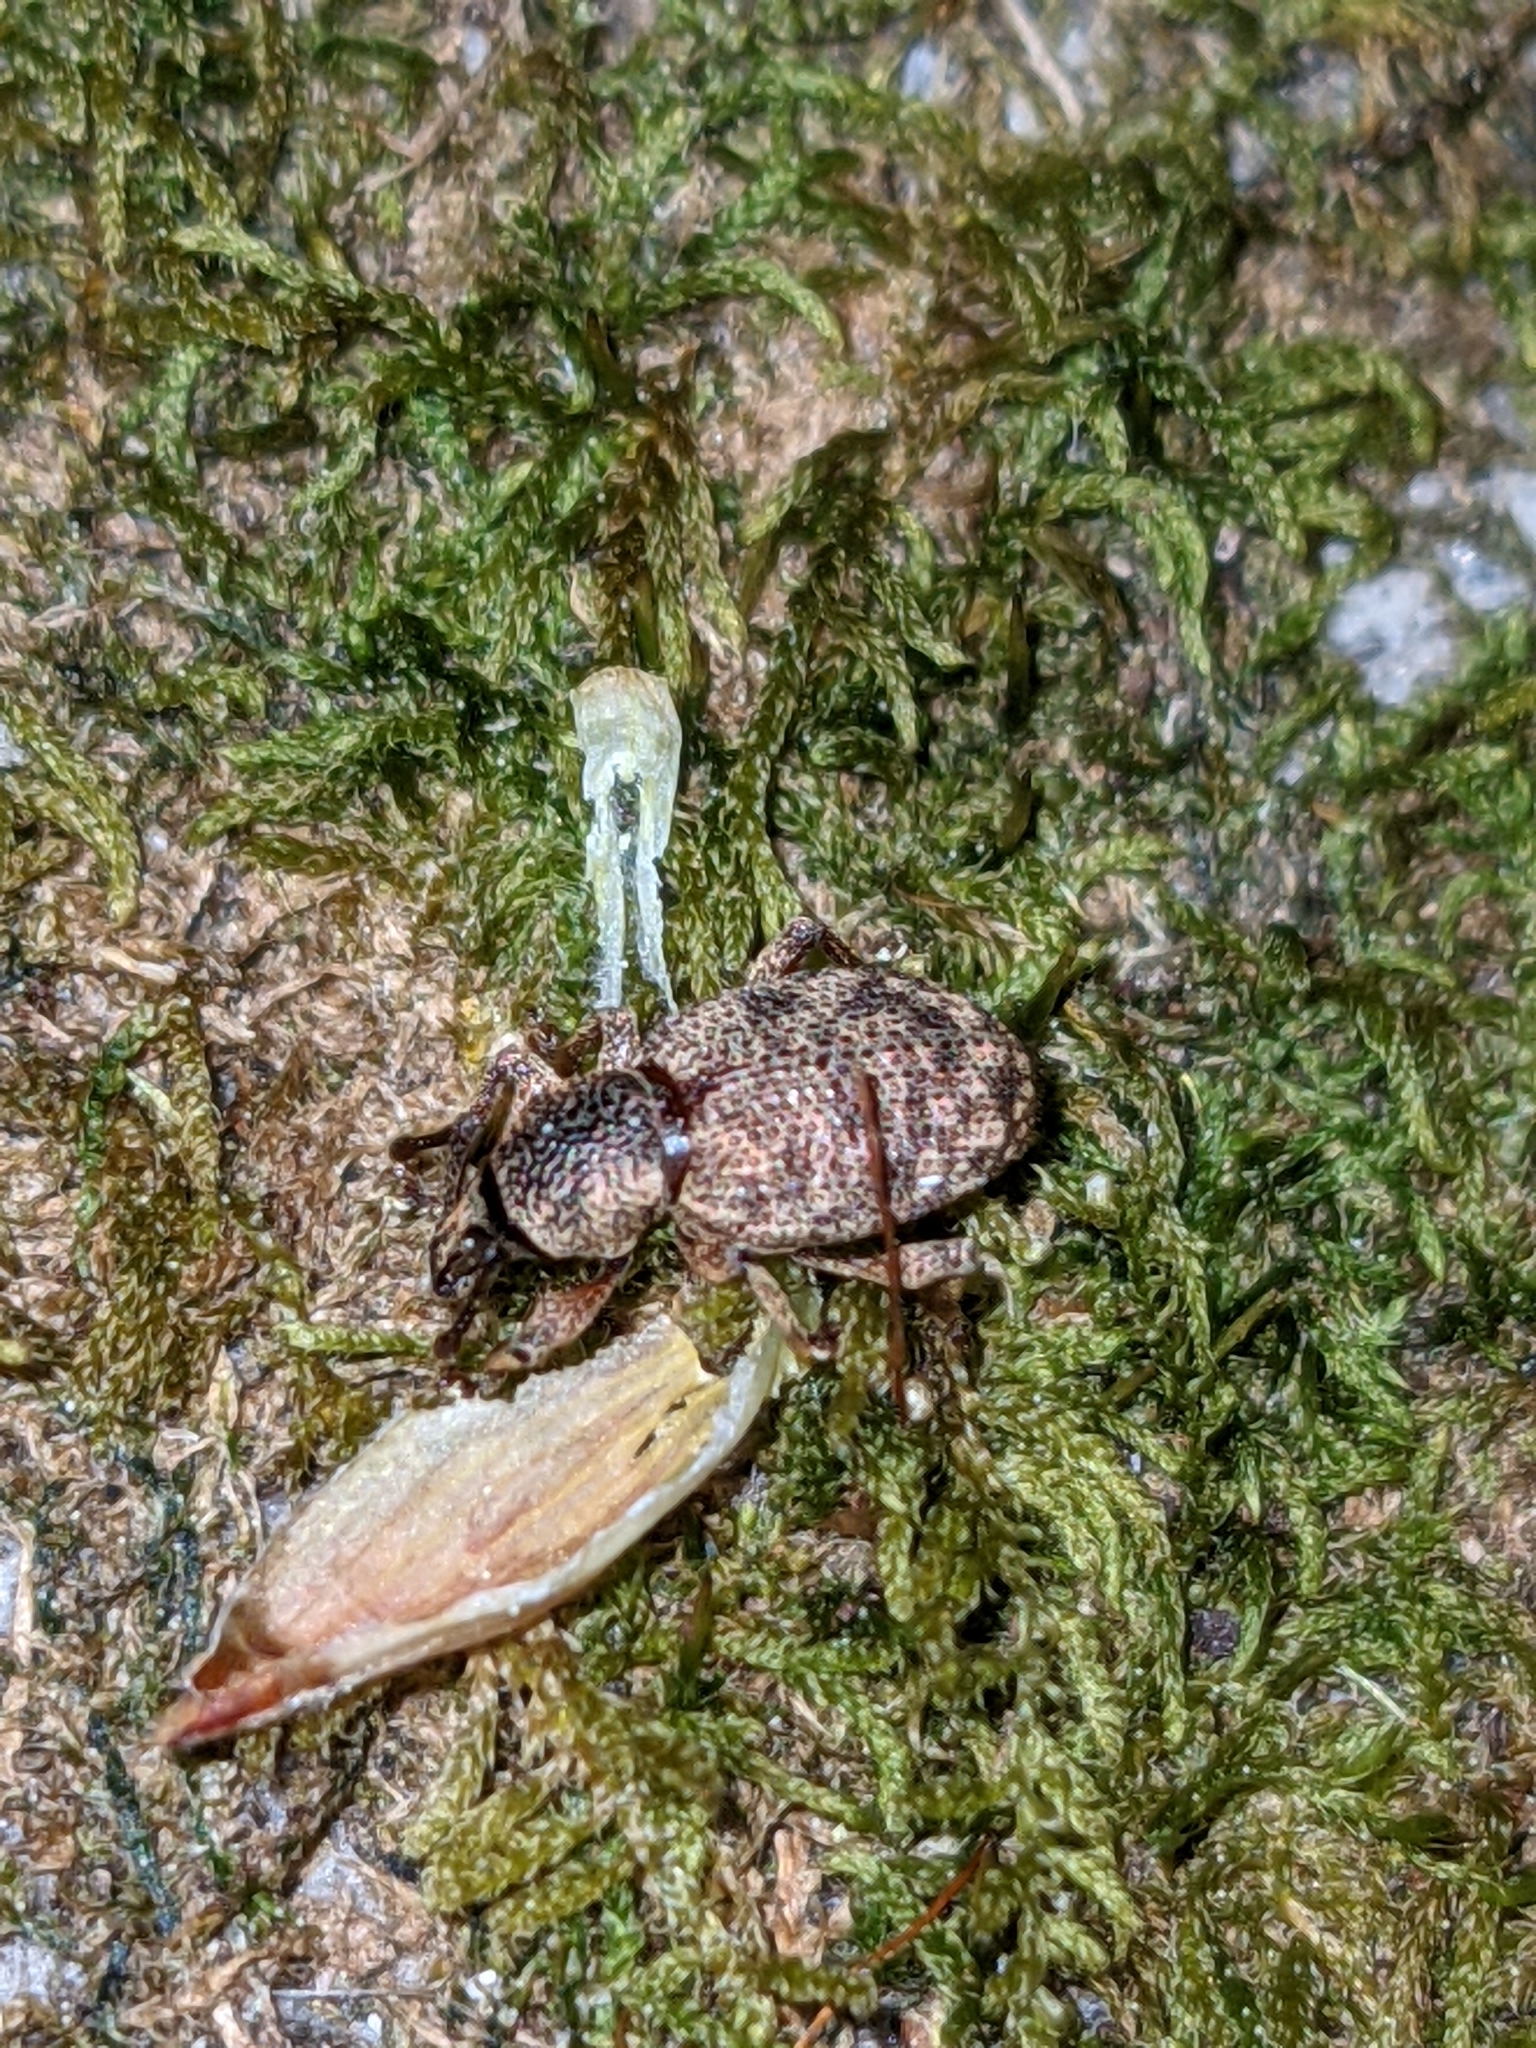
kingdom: Animalia
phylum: Arthropoda
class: Insecta
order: Coleoptera
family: Curculionidae
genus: Otiorhynchus
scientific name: Otiorhynchus singularis
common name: Clay-coloured weevil
